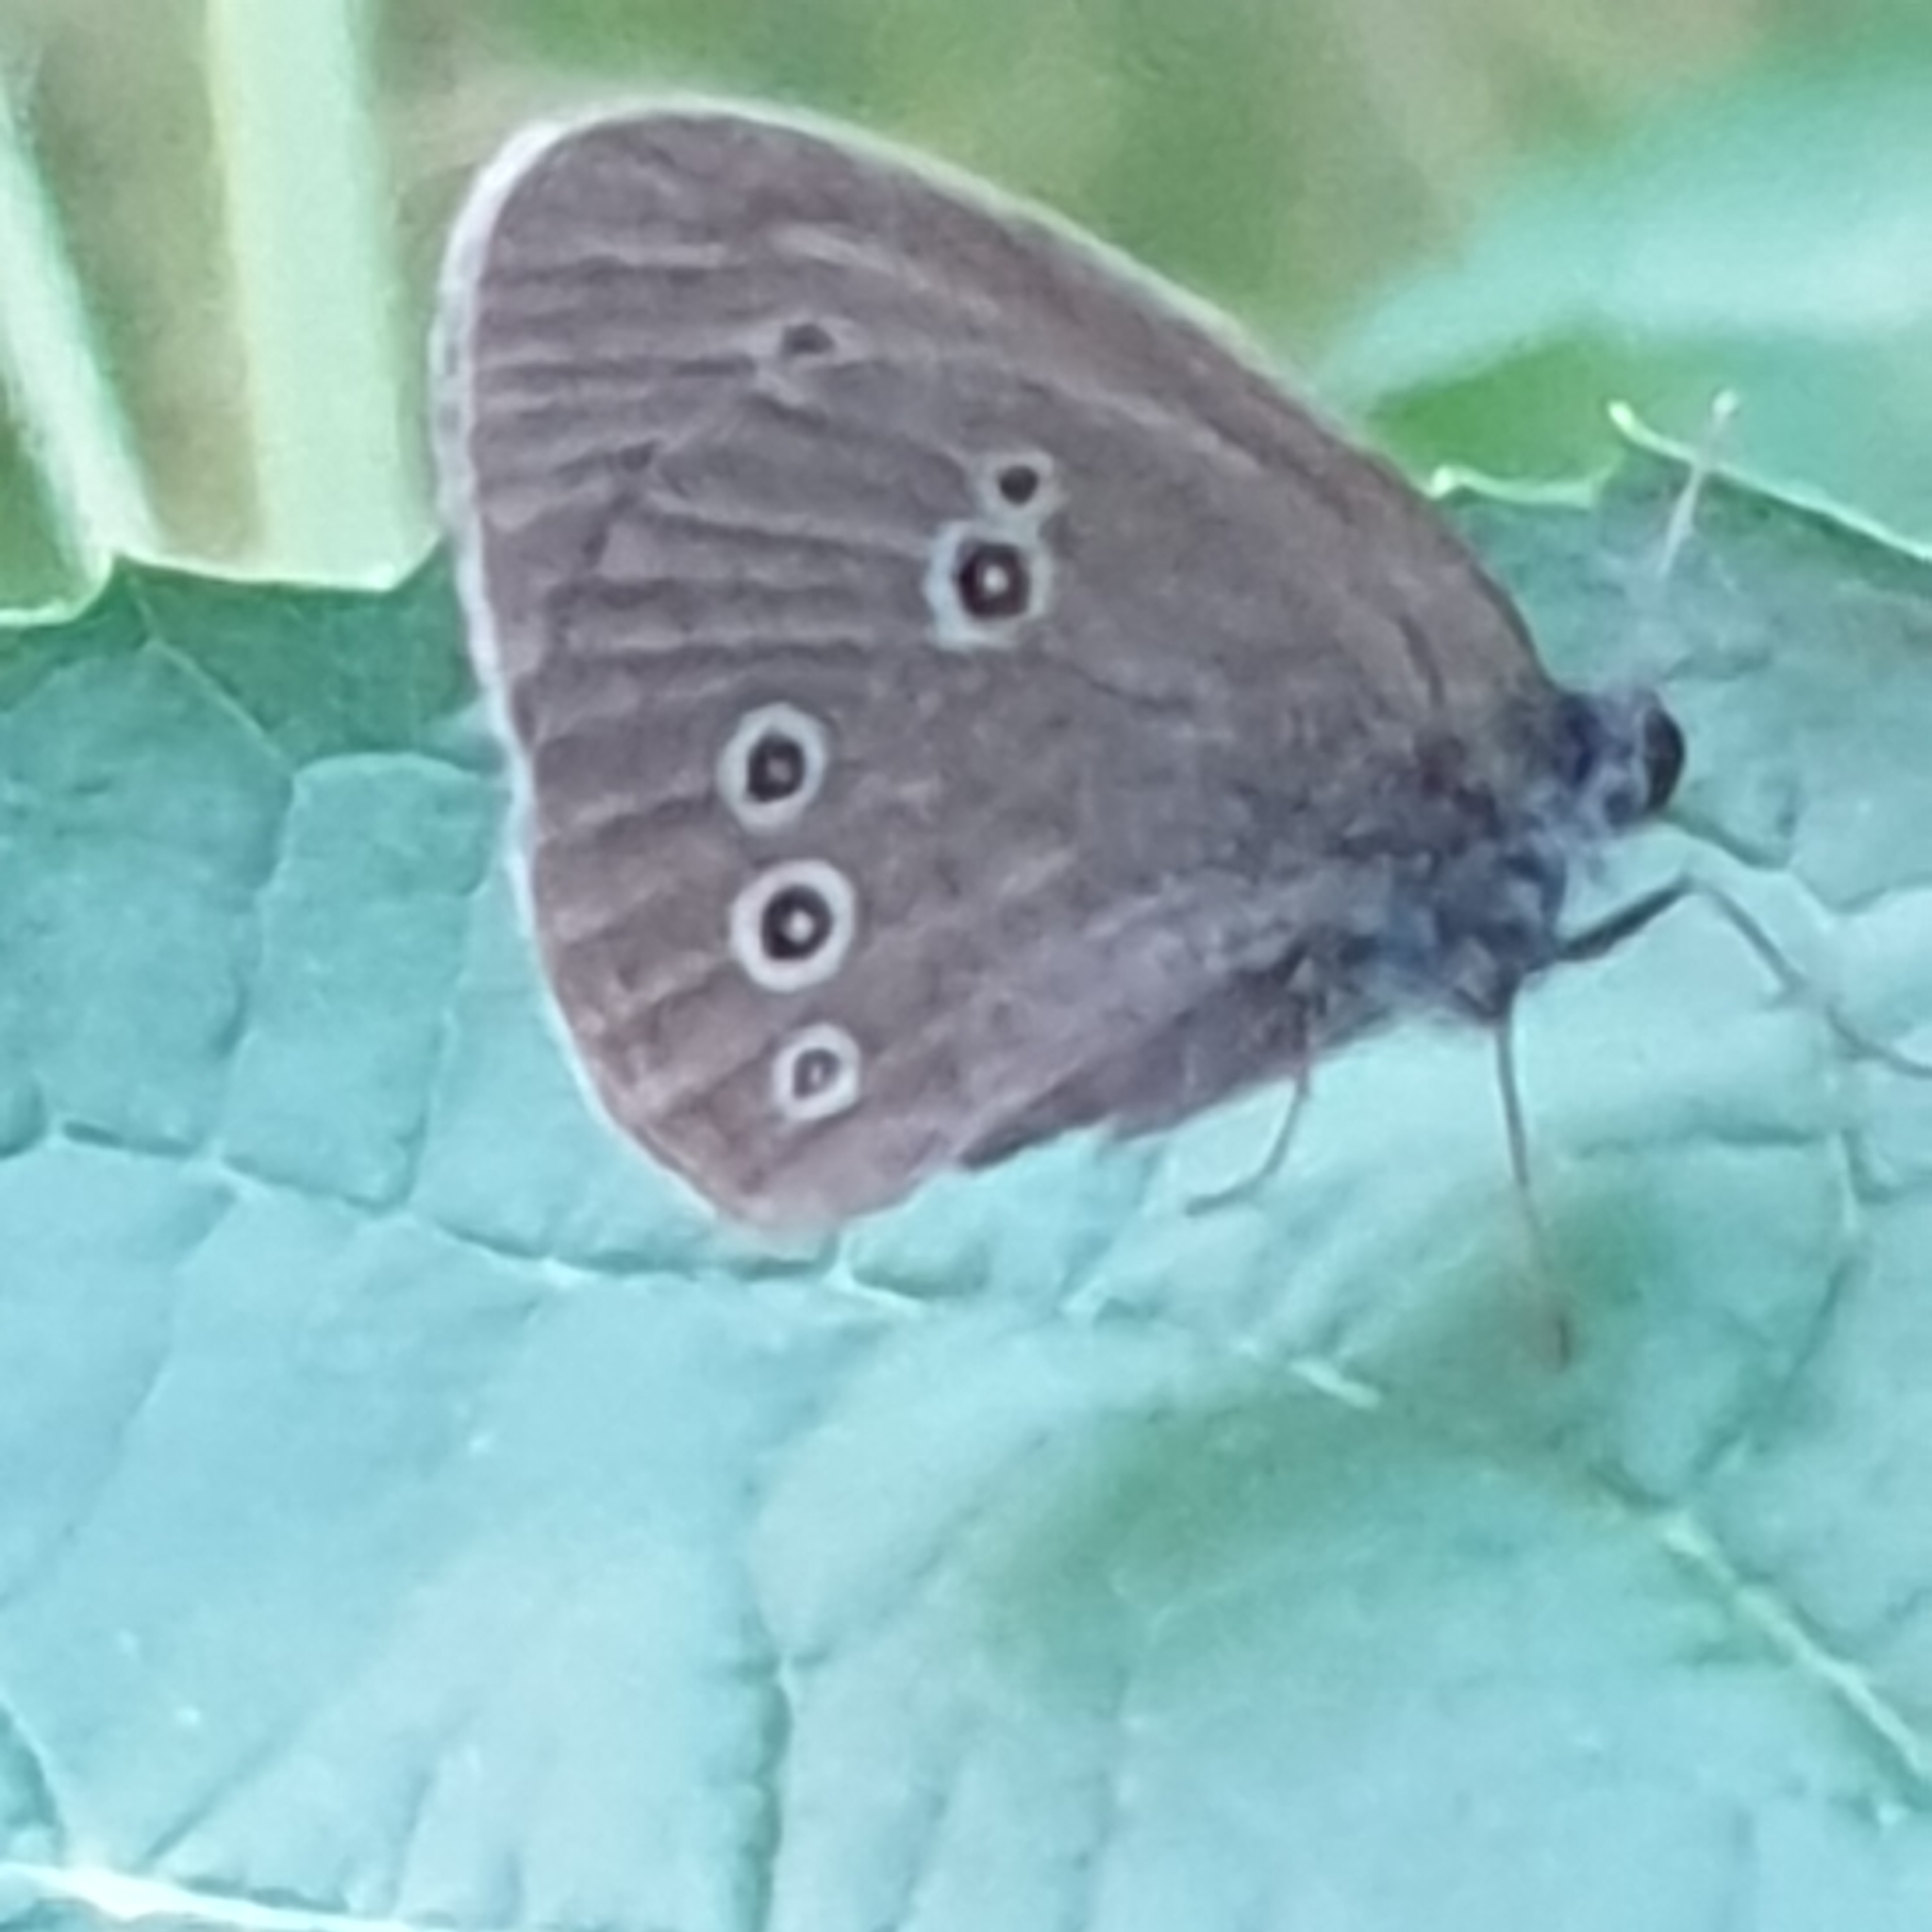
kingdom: Animalia
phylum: Arthropoda
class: Insecta
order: Lepidoptera
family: Nymphalidae
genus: Aphantopus
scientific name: Aphantopus hyperantus
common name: Ringlet
